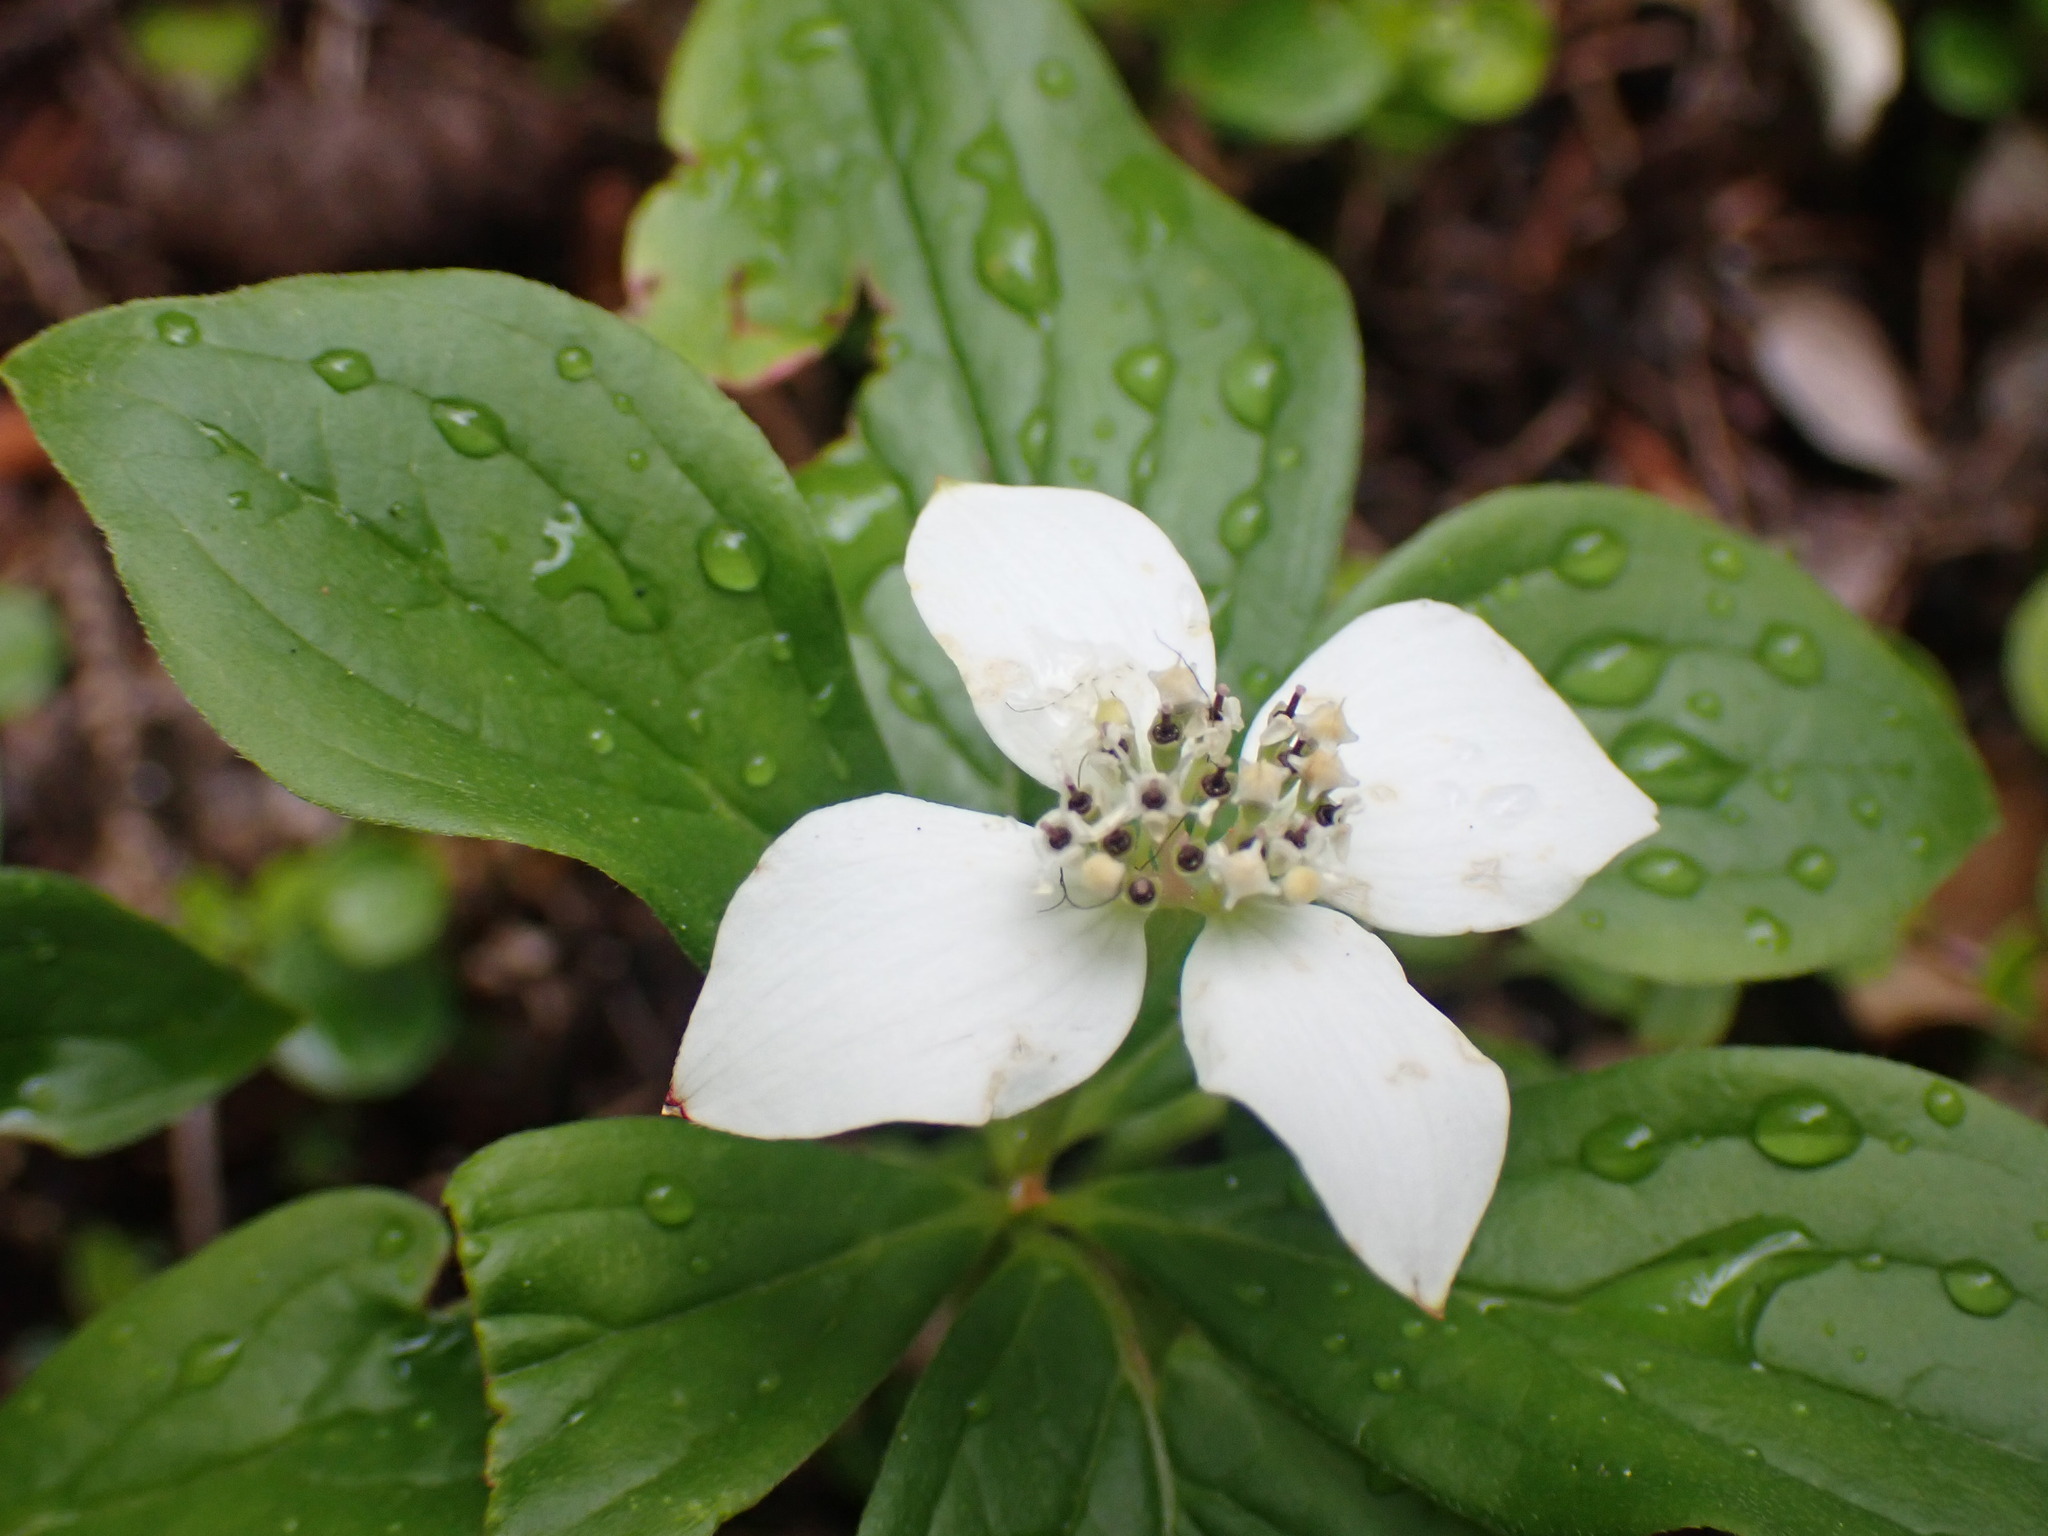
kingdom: Plantae
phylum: Tracheophyta
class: Magnoliopsida
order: Cornales
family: Cornaceae
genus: Cornus
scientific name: Cornus canadensis
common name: Creeping dogwood
